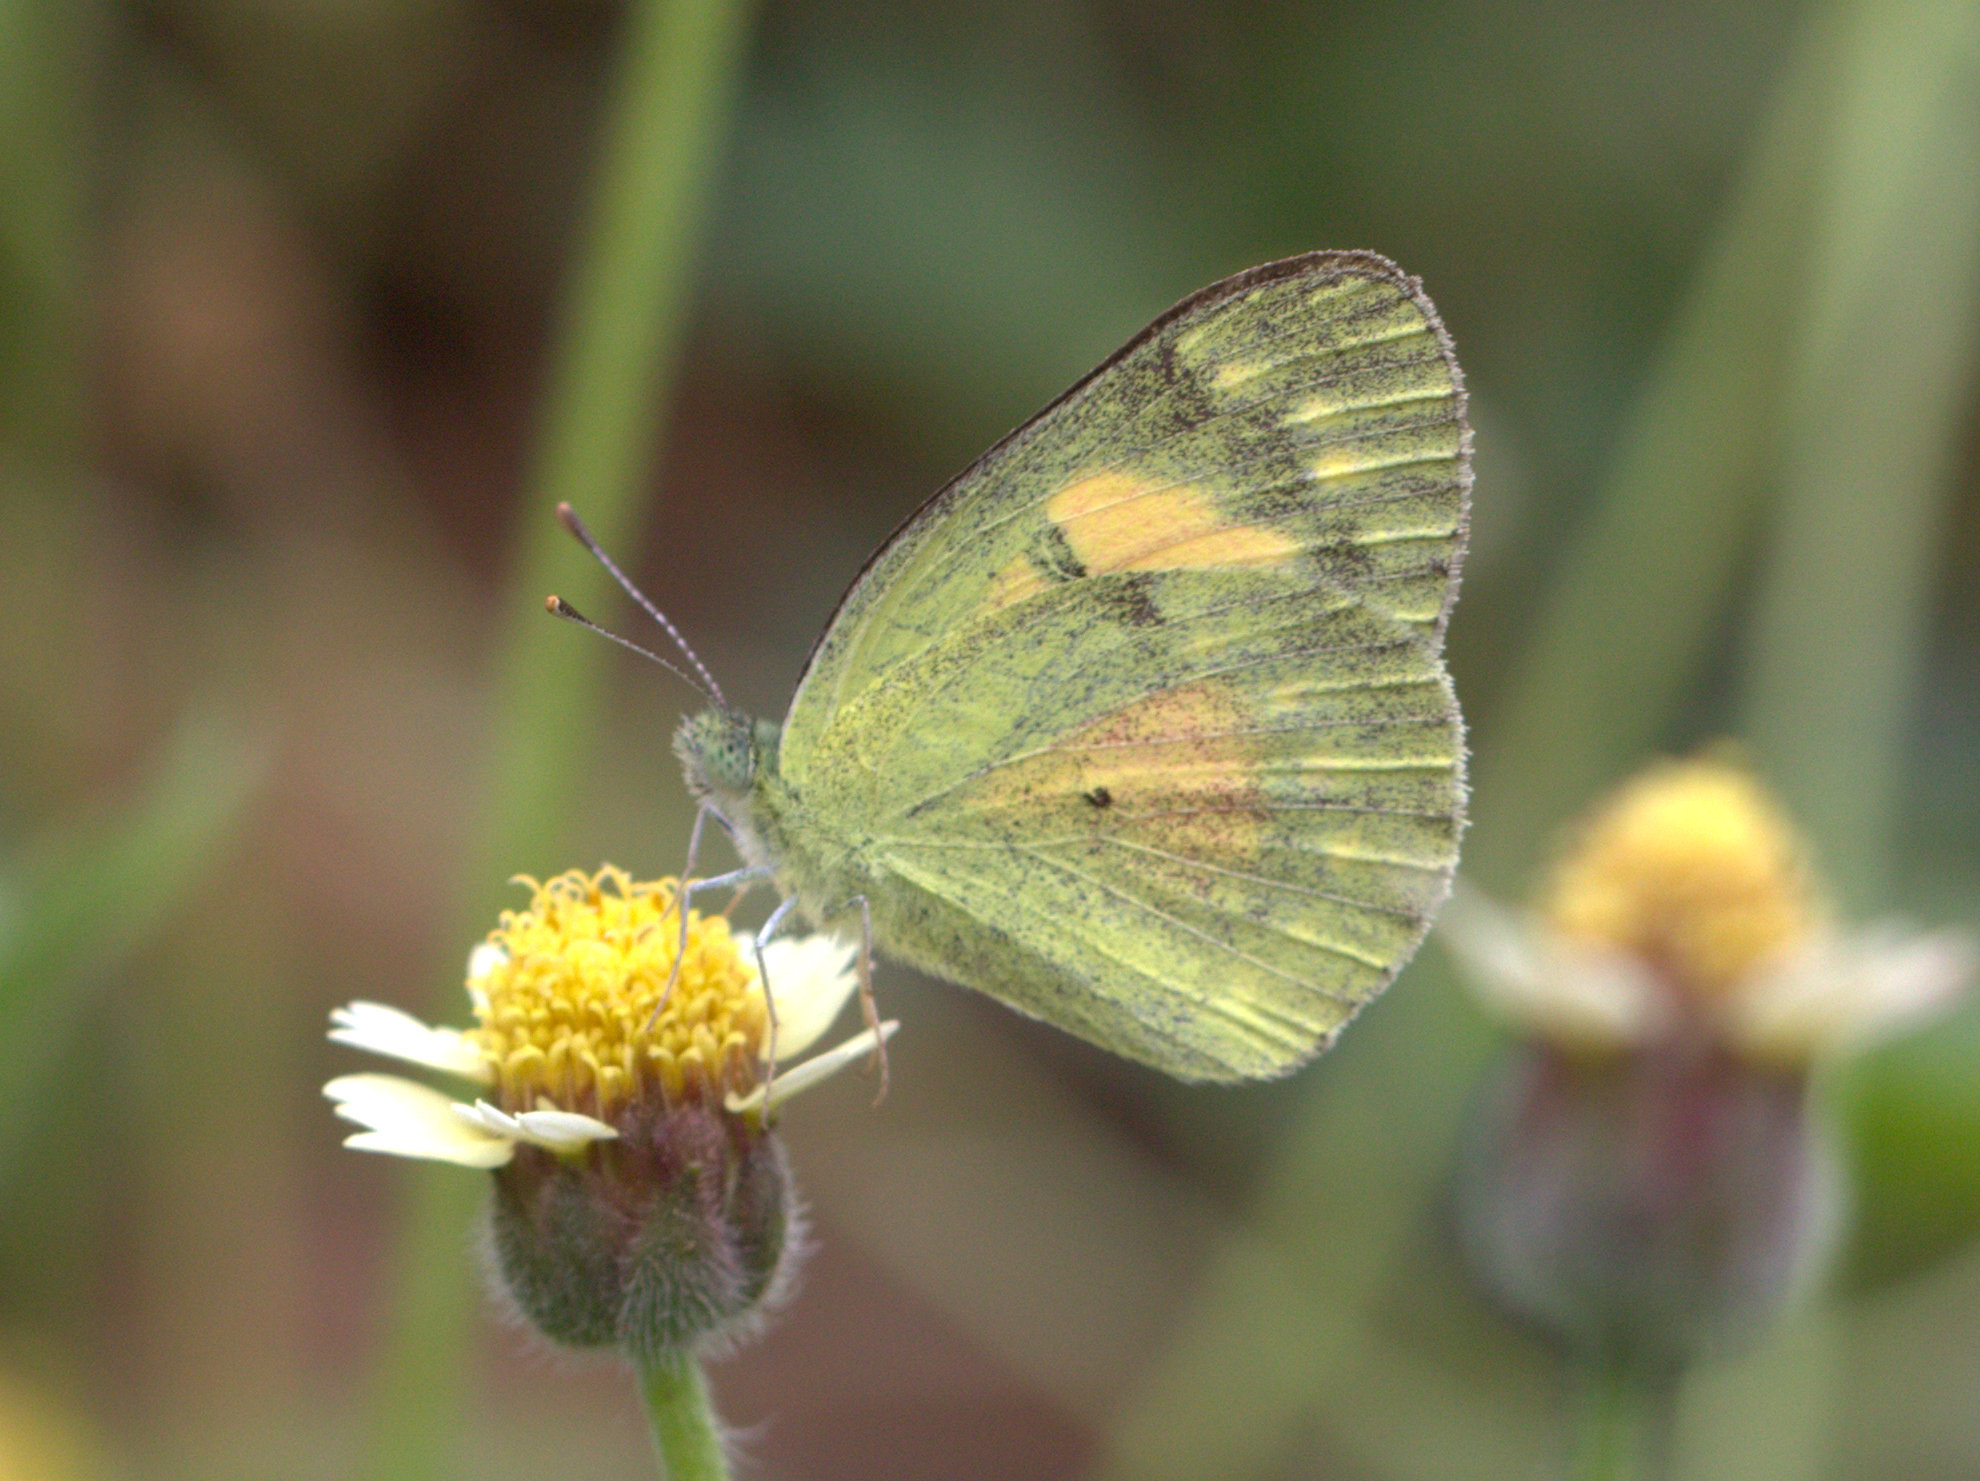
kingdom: Animalia
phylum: Arthropoda
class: Insecta
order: Lepidoptera
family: Pieridae
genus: Colotis
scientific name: Colotis amata
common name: Small salmon arab
